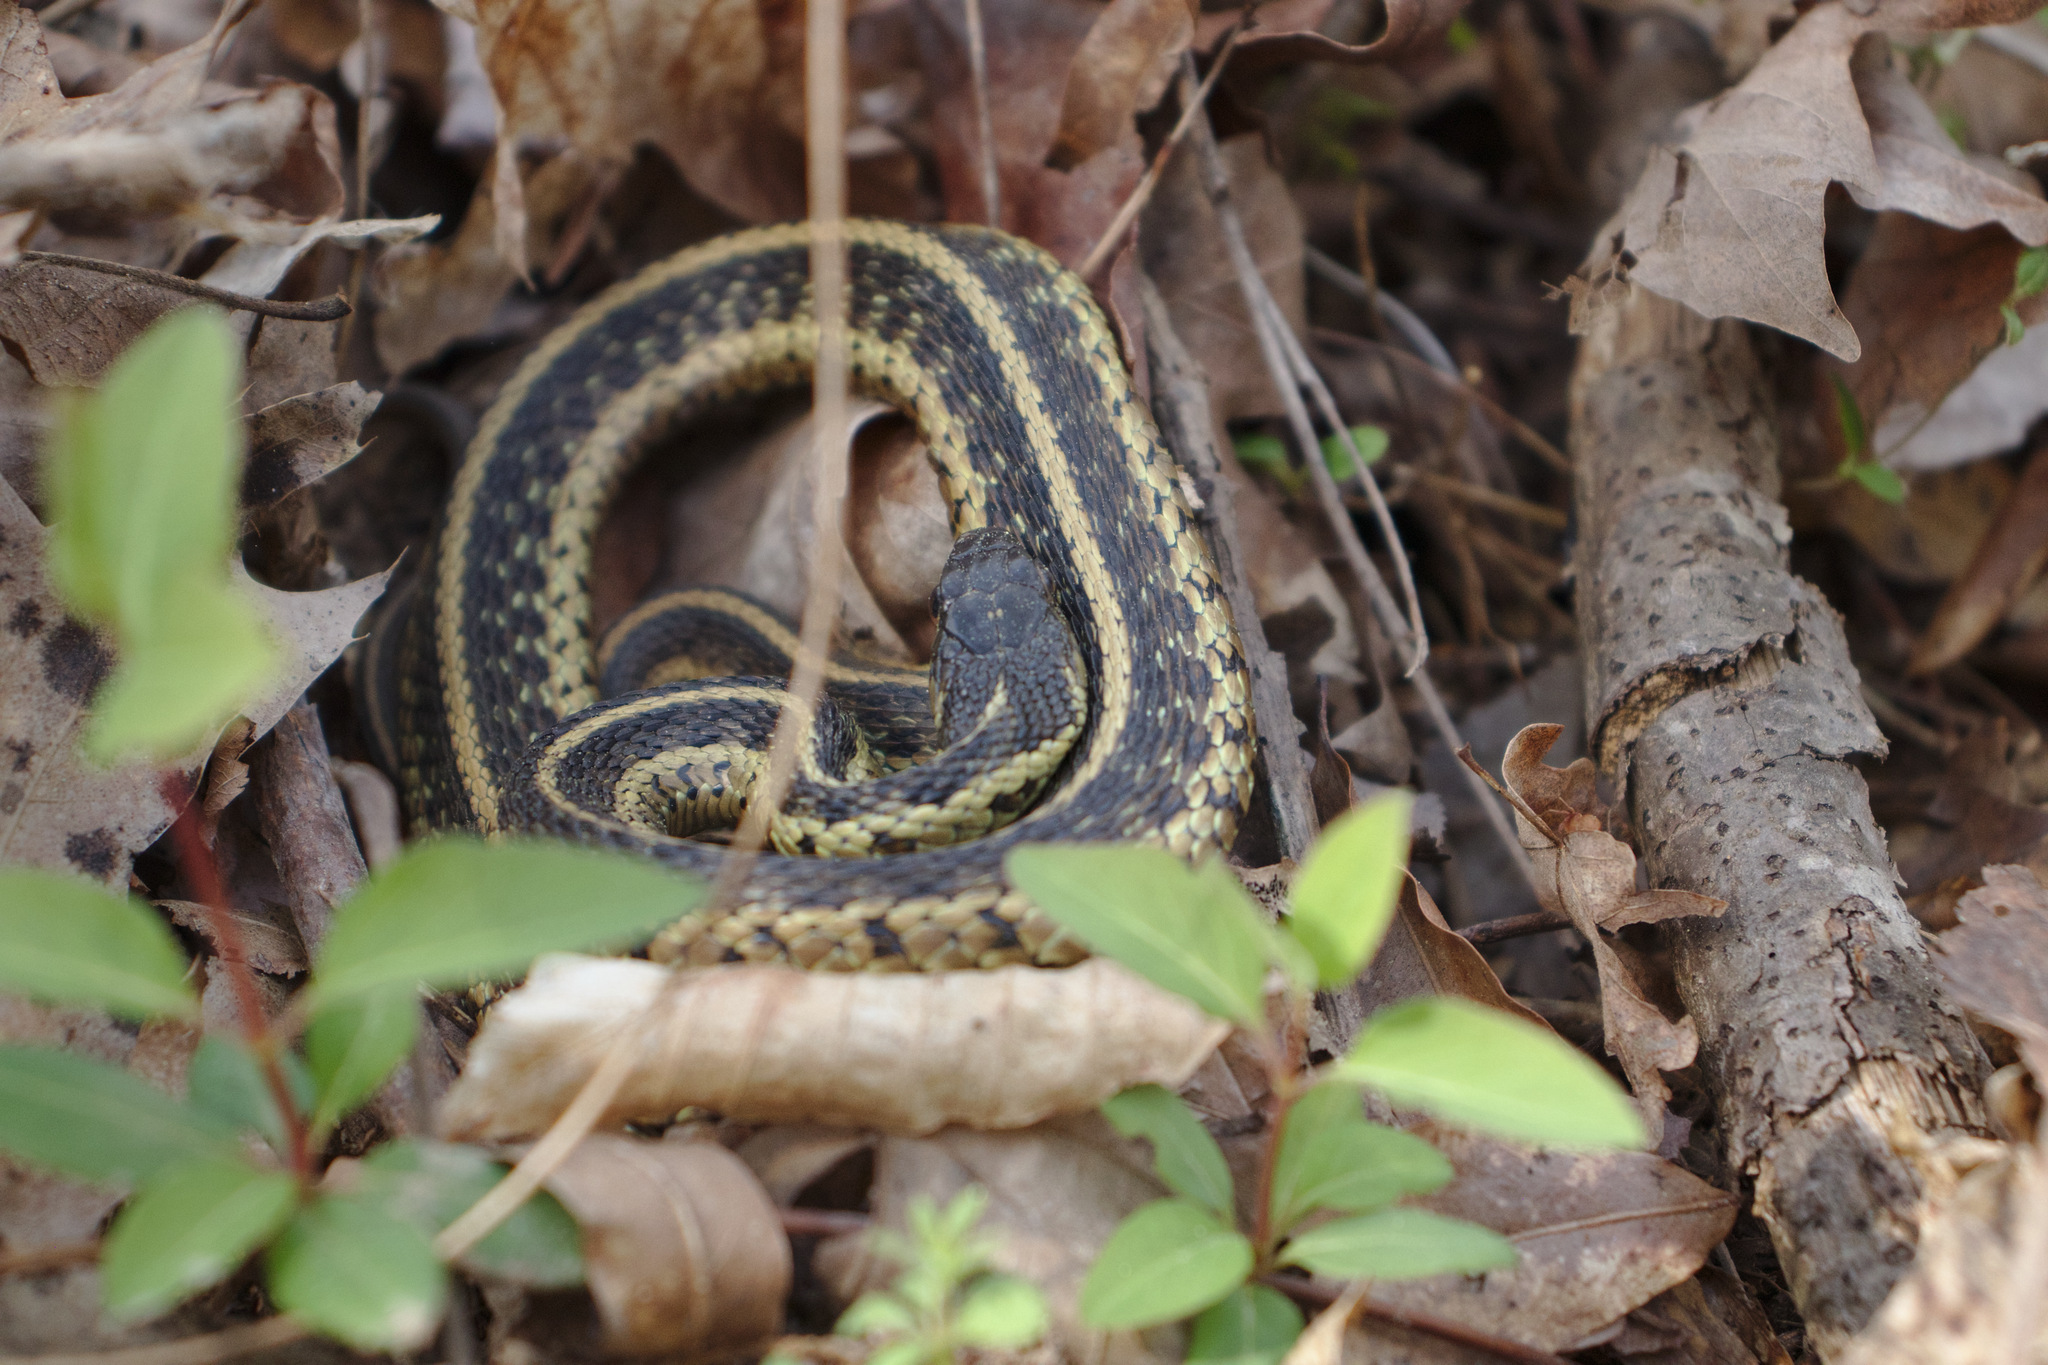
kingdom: Animalia
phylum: Chordata
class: Squamata
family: Colubridae
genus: Thamnophis
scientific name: Thamnophis sirtalis
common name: Common garter snake
